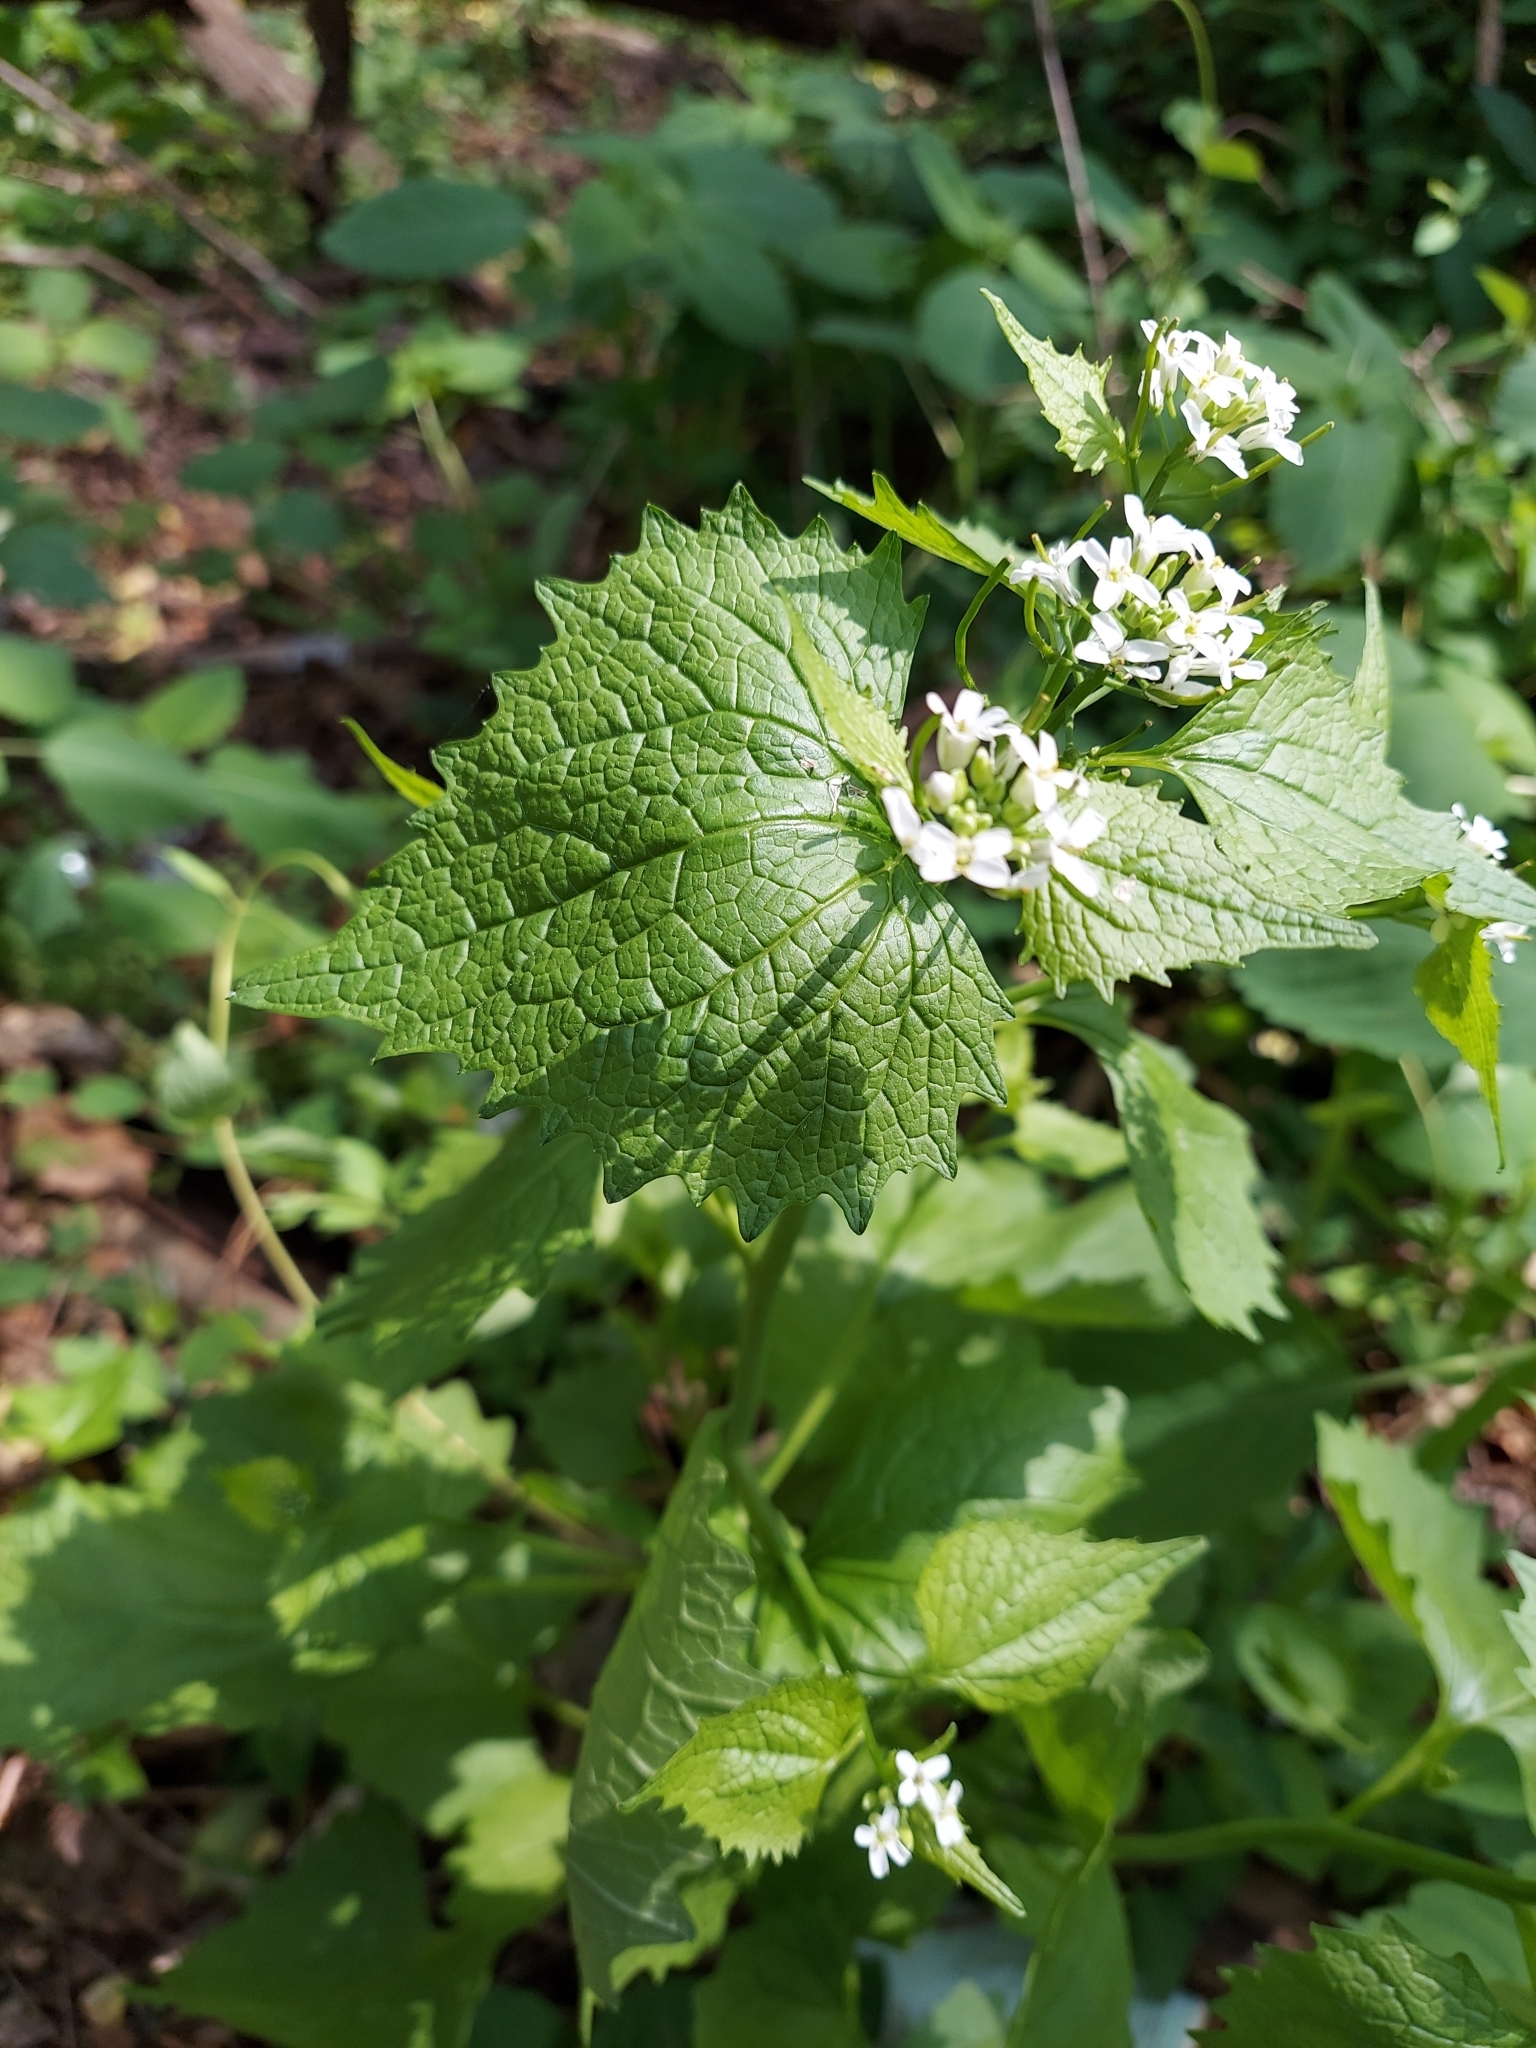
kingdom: Plantae
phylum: Tracheophyta
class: Magnoliopsida
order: Brassicales
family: Brassicaceae
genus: Alliaria
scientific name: Alliaria petiolata
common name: Garlic mustard
